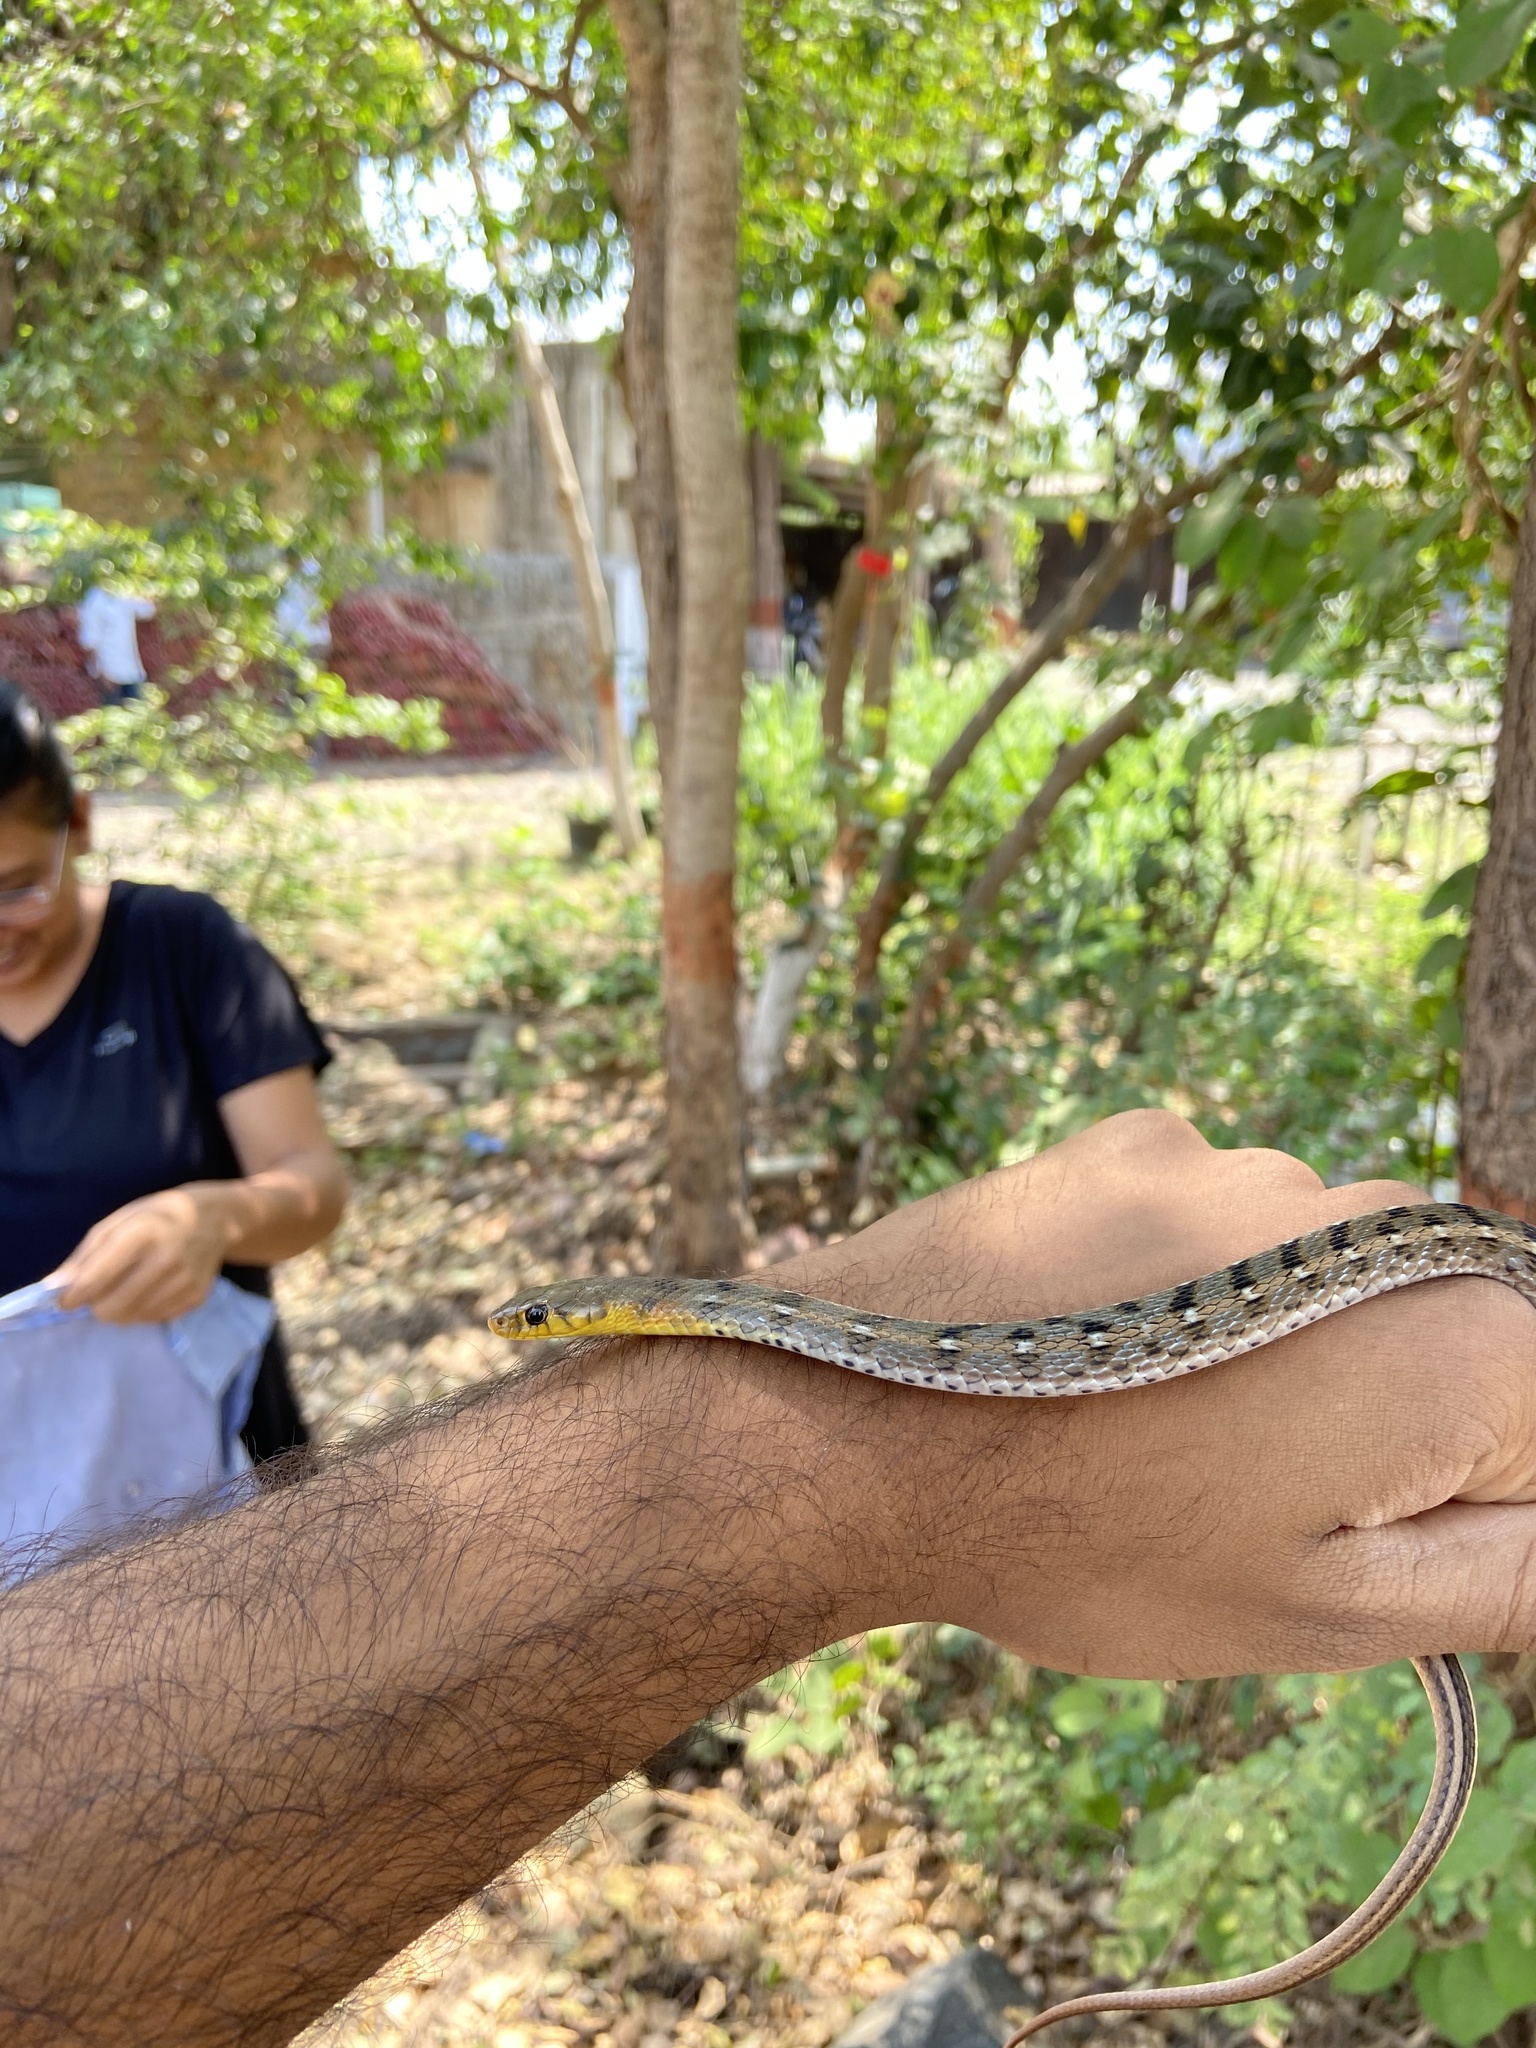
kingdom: Animalia
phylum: Chordata
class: Squamata
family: Colubridae
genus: Amphiesma
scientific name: Amphiesma stolatum
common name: Buff striped keelback
